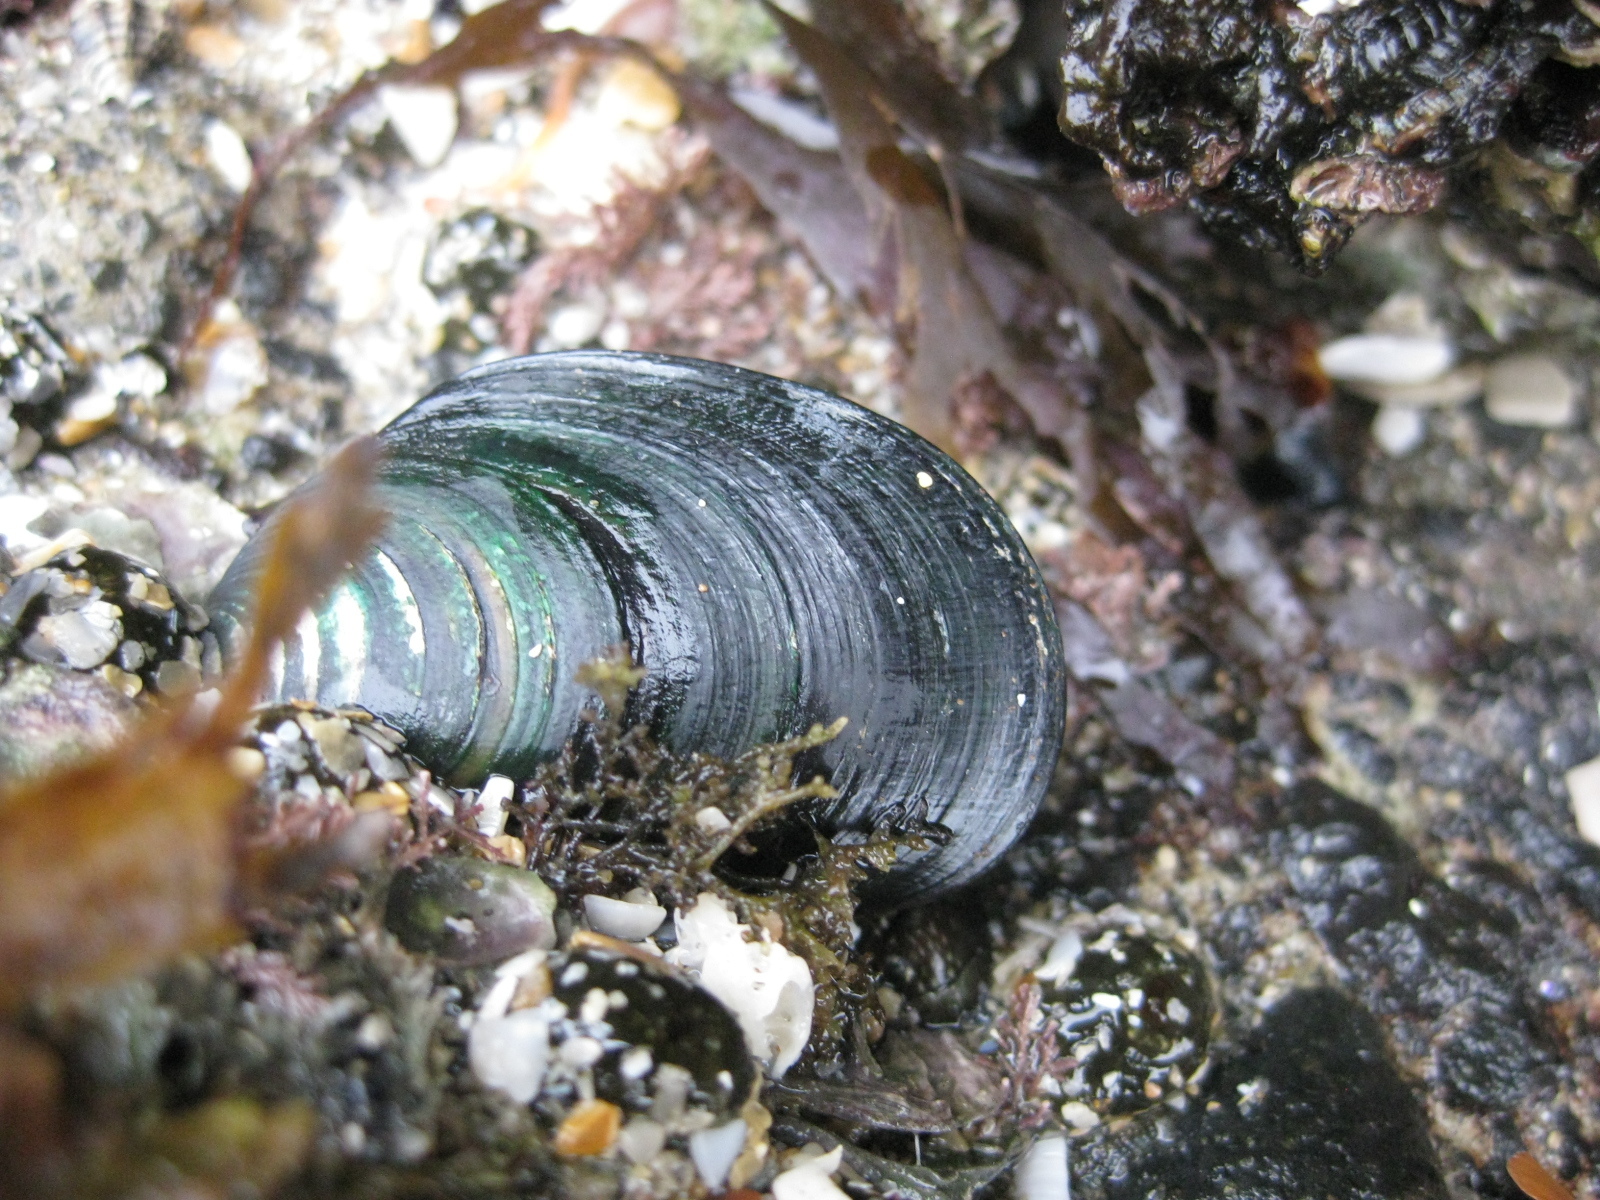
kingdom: Animalia
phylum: Mollusca
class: Bivalvia
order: Mytilida
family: Mytilidae
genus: Perna
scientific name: Perna canaliculus
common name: New zealand greenshelltm
